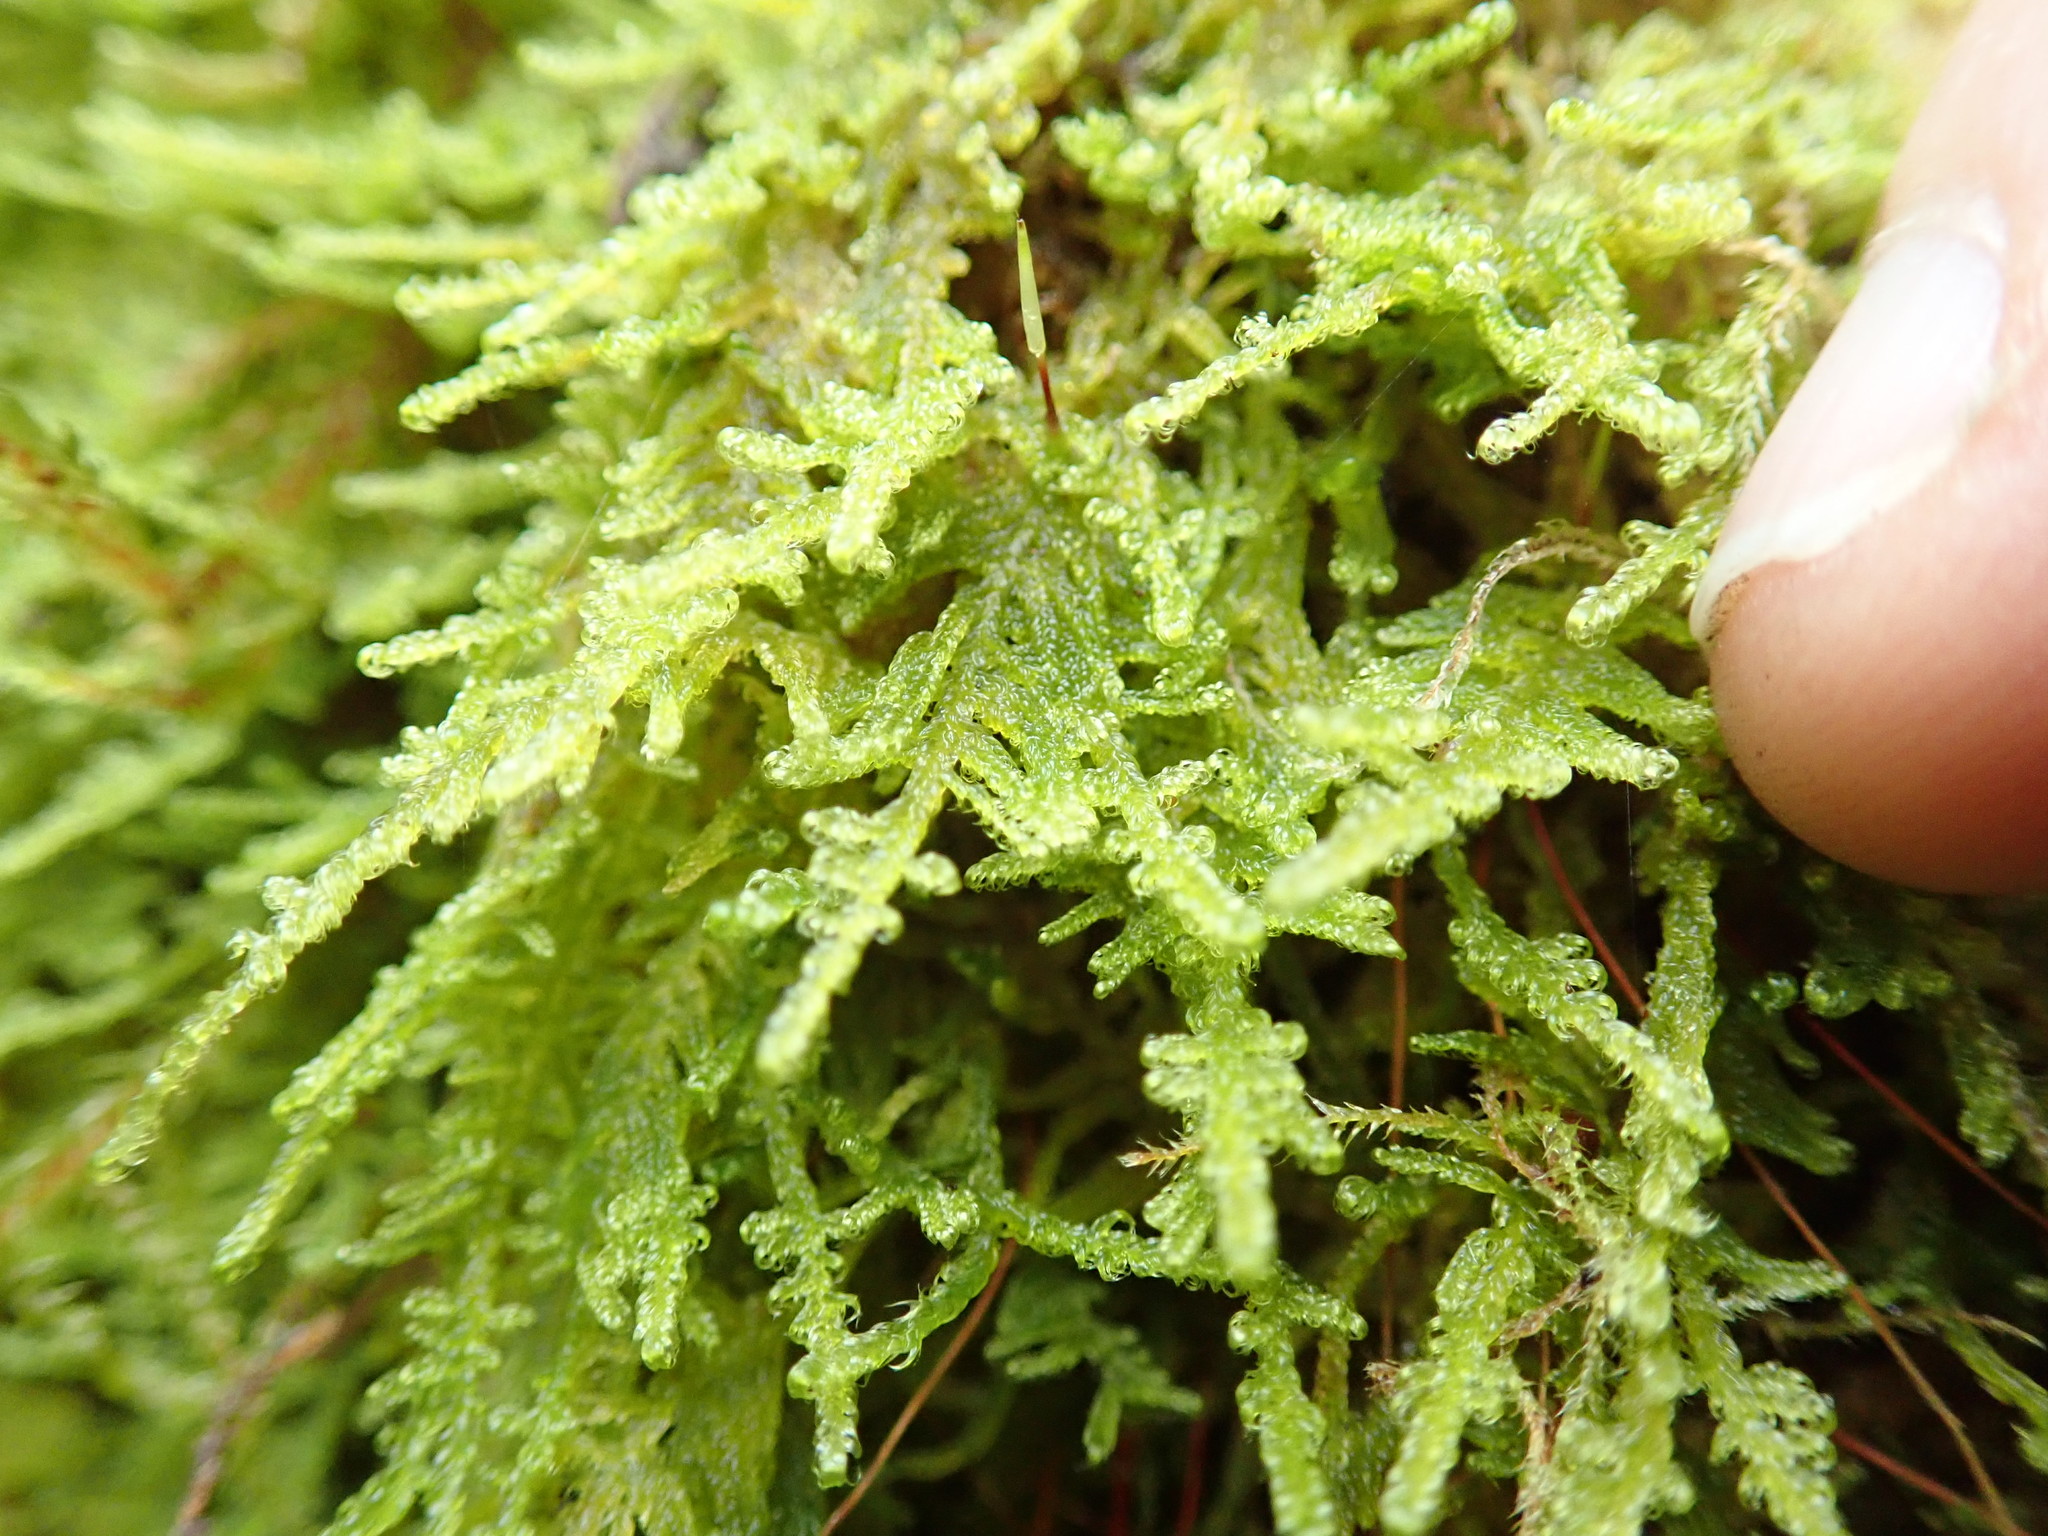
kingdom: Plantae
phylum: Bryophyta
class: Bryopsida
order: Hypnales
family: Stereodontaceae
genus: Stereodon
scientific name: Stereodon subimponens
